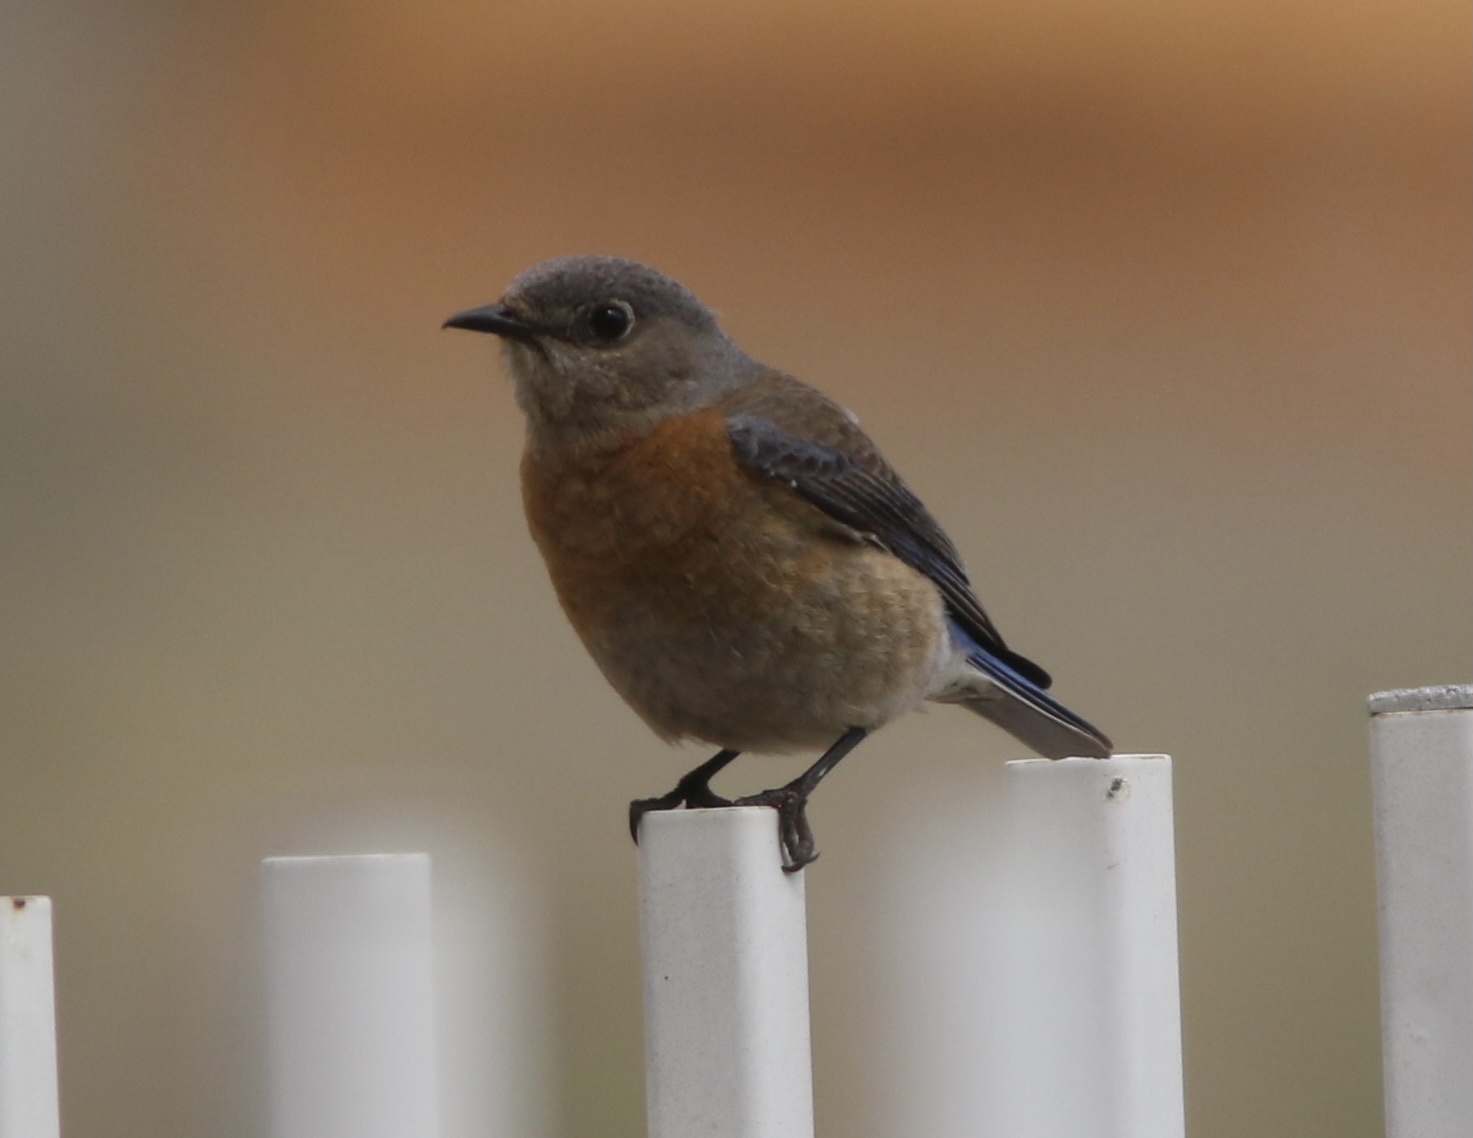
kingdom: Animalia
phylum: Chordata
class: Aves
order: Passeriformes
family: Turdidae
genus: Sialia
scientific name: Sialia mexicana
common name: Western bluebird
